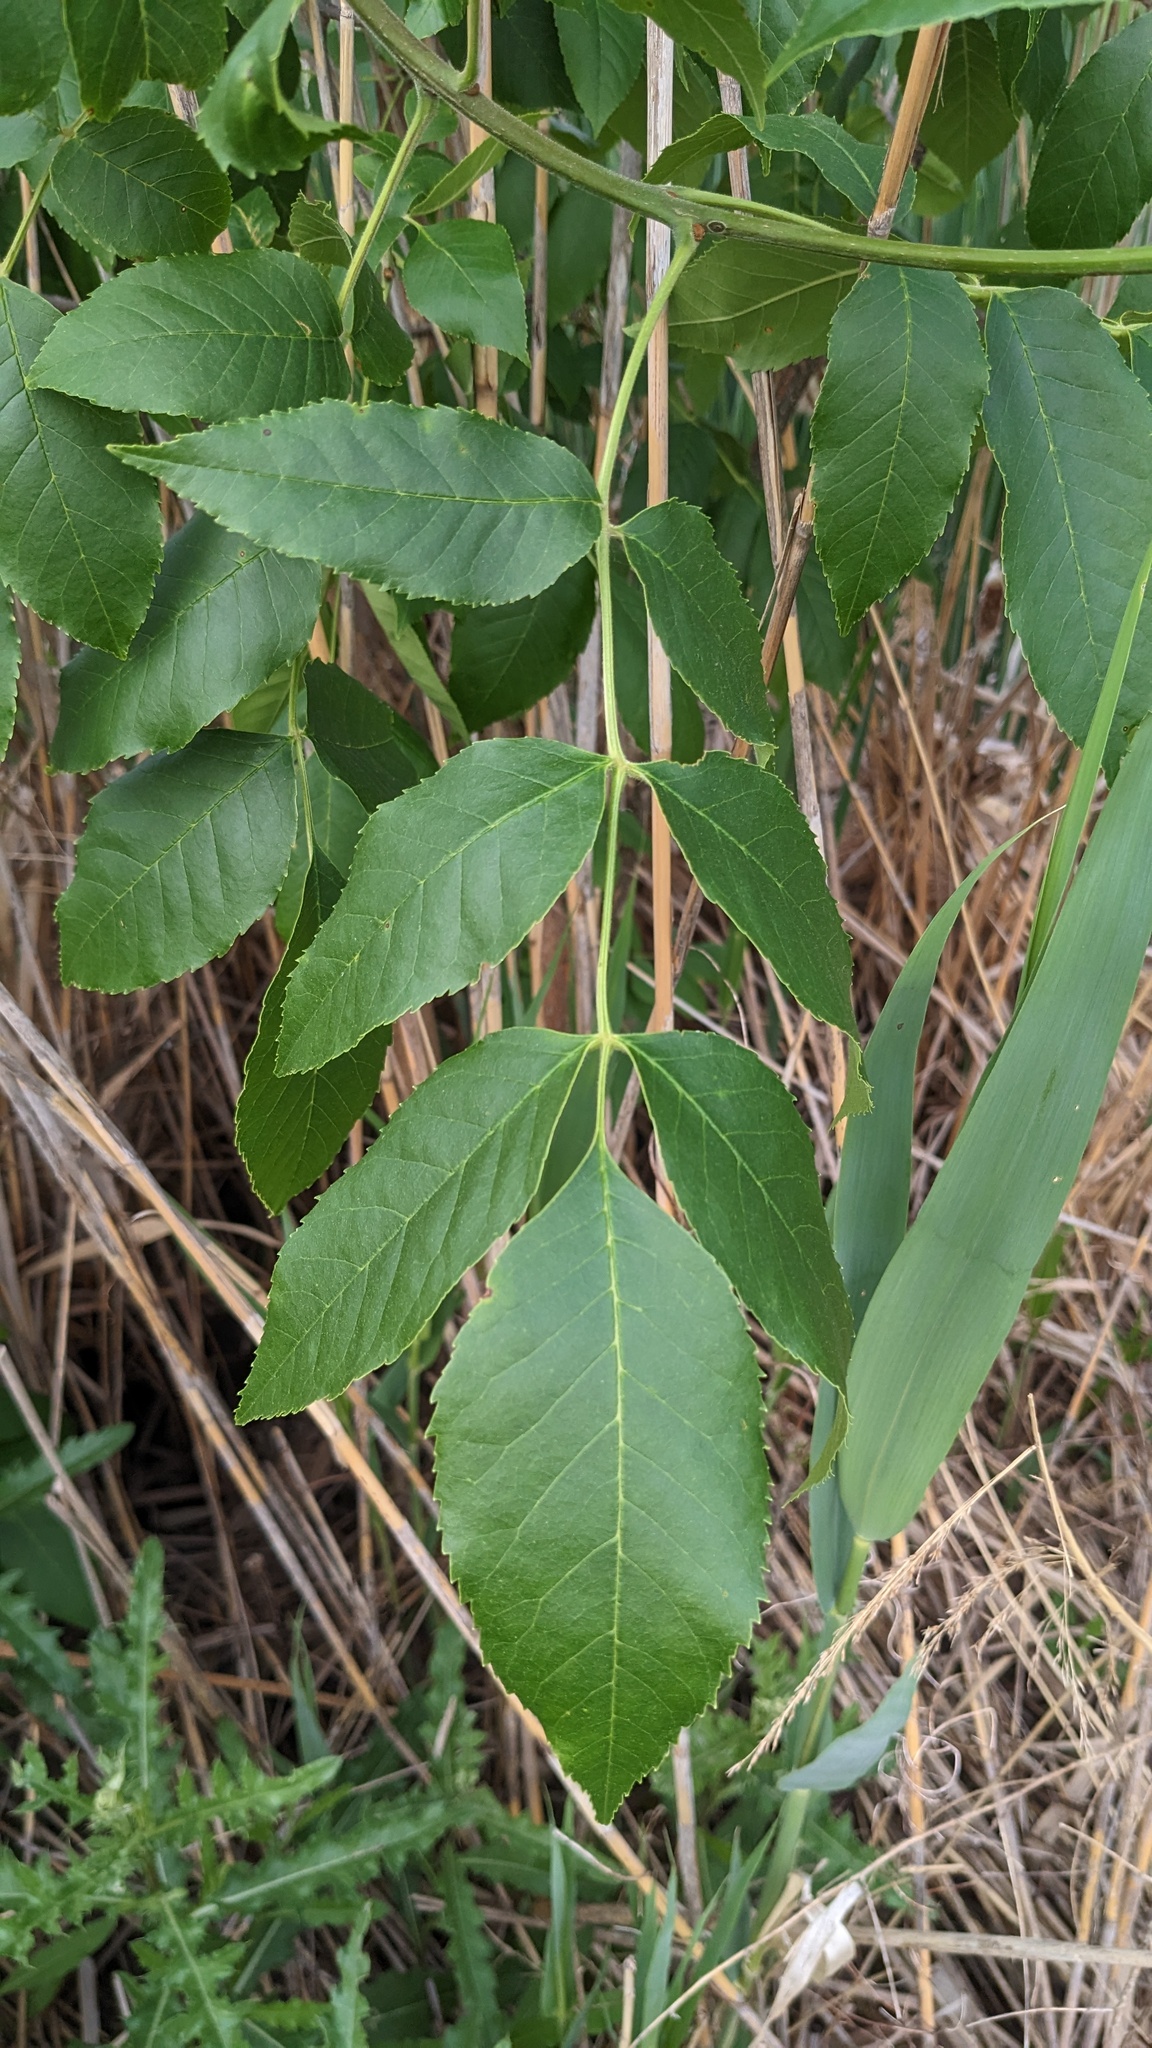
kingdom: Plantae
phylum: Tracheophyta
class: Magnoliopsida
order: Lamiales
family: Oleaceae
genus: Fraxinus
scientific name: Fraxinus pennsylvanica
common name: Green ash
